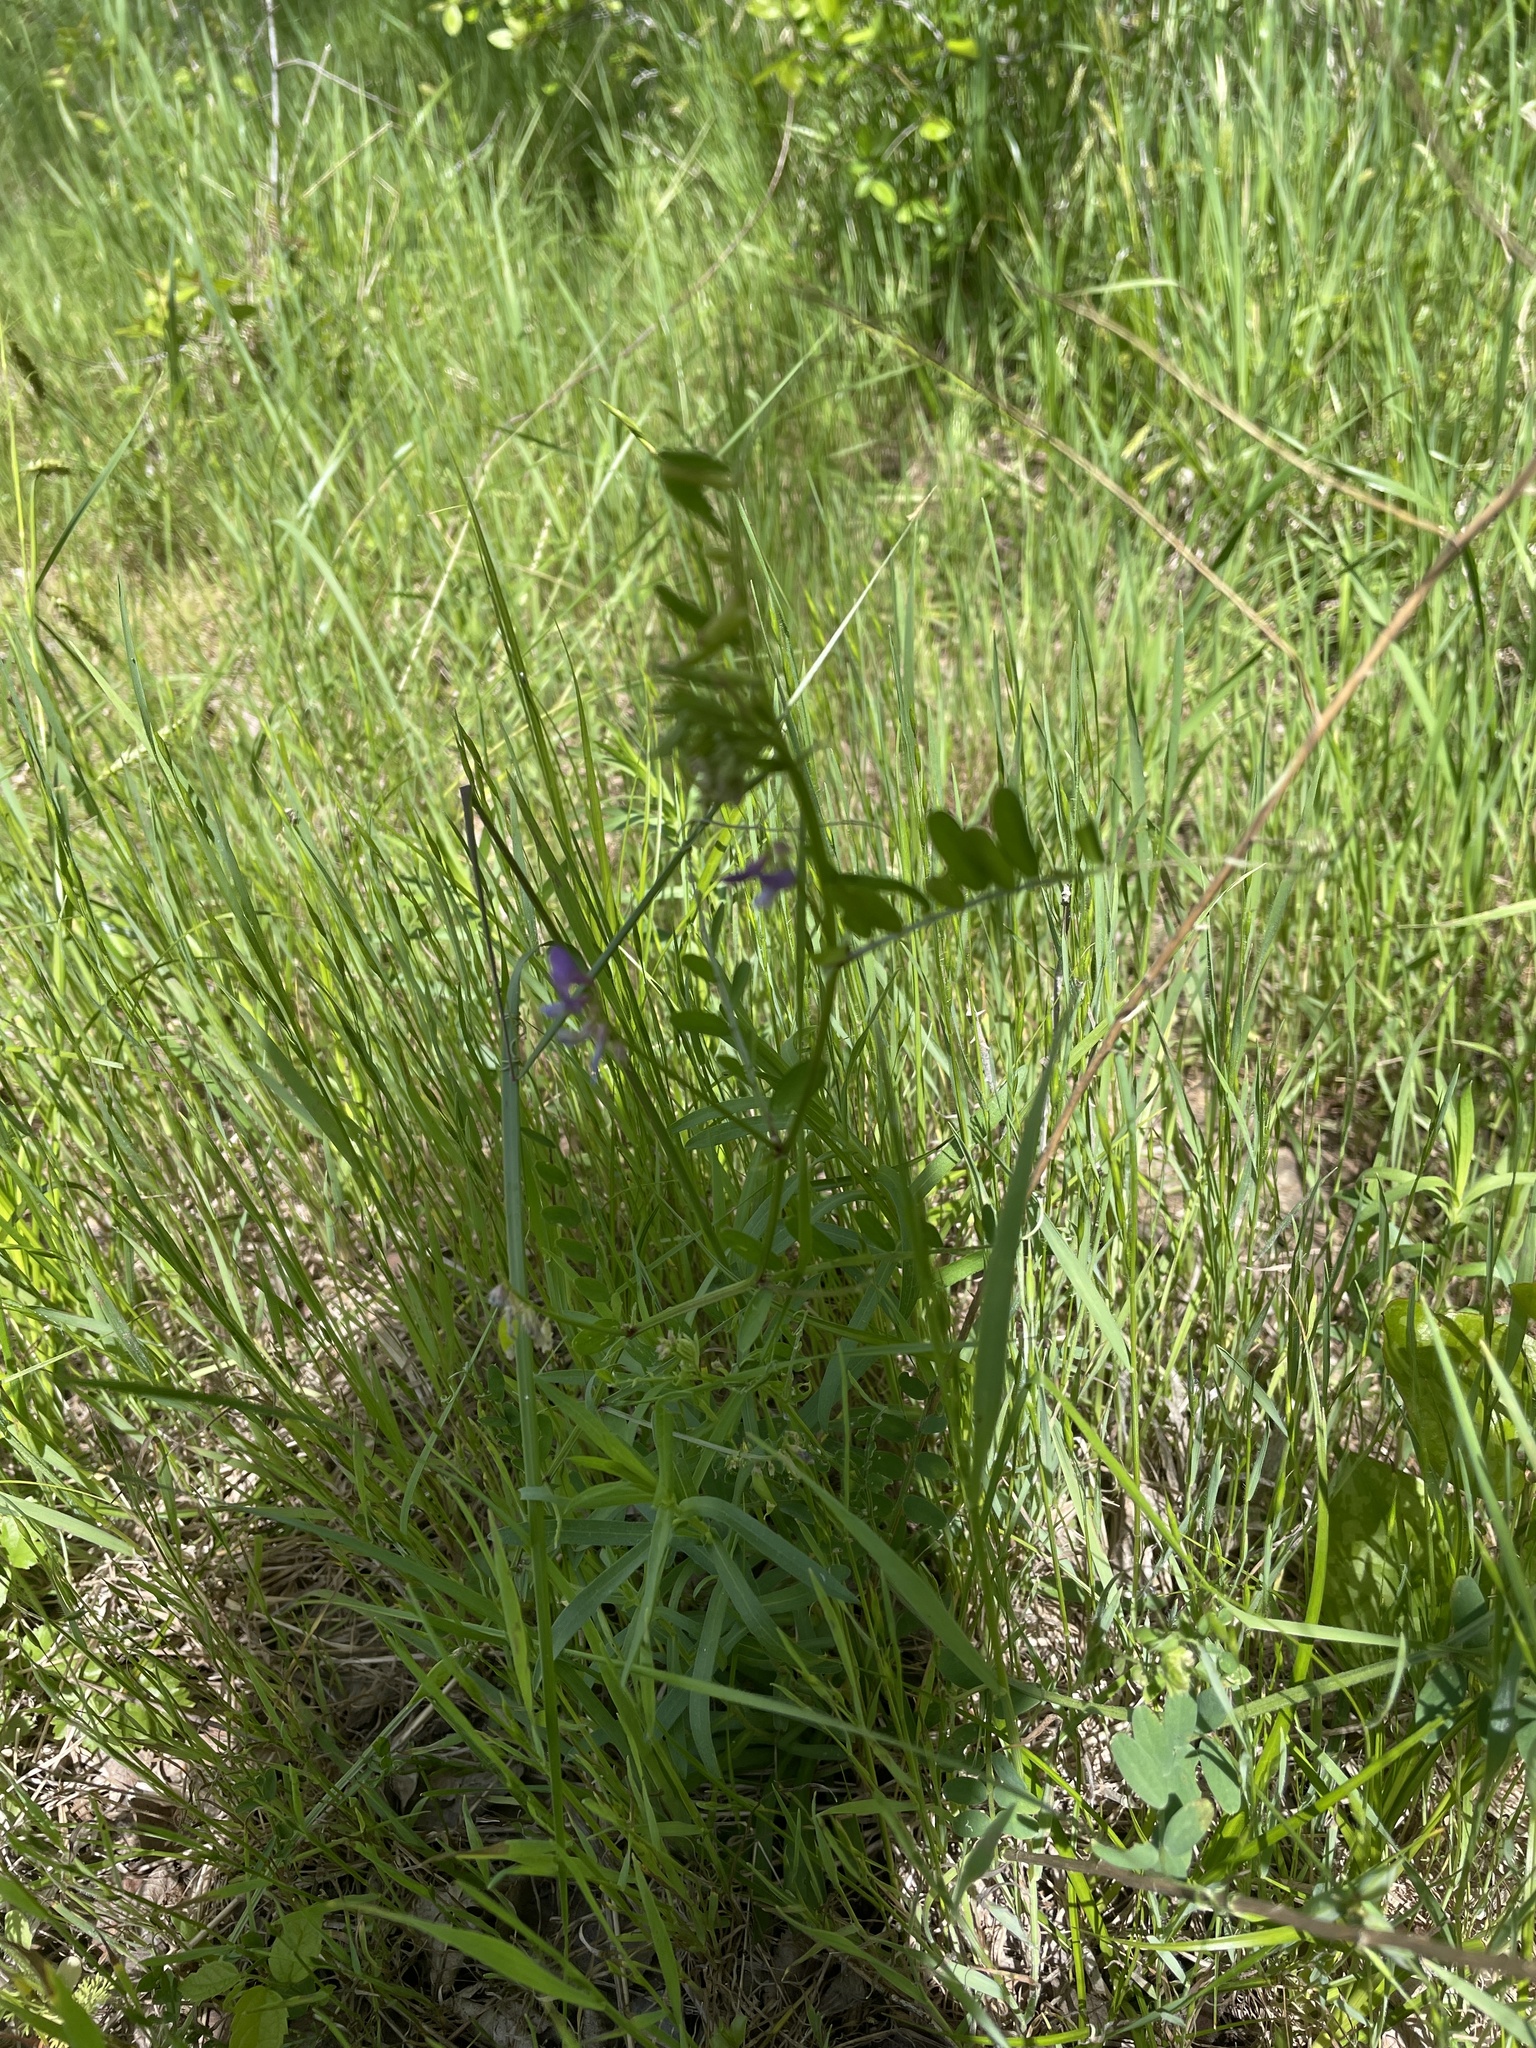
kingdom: Plantae
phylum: Tracheophyta
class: Magnoliopsida
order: Fabales
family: Fabaceae
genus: Vicia
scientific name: Vicia ludoviciana
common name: Louisiana vetch
